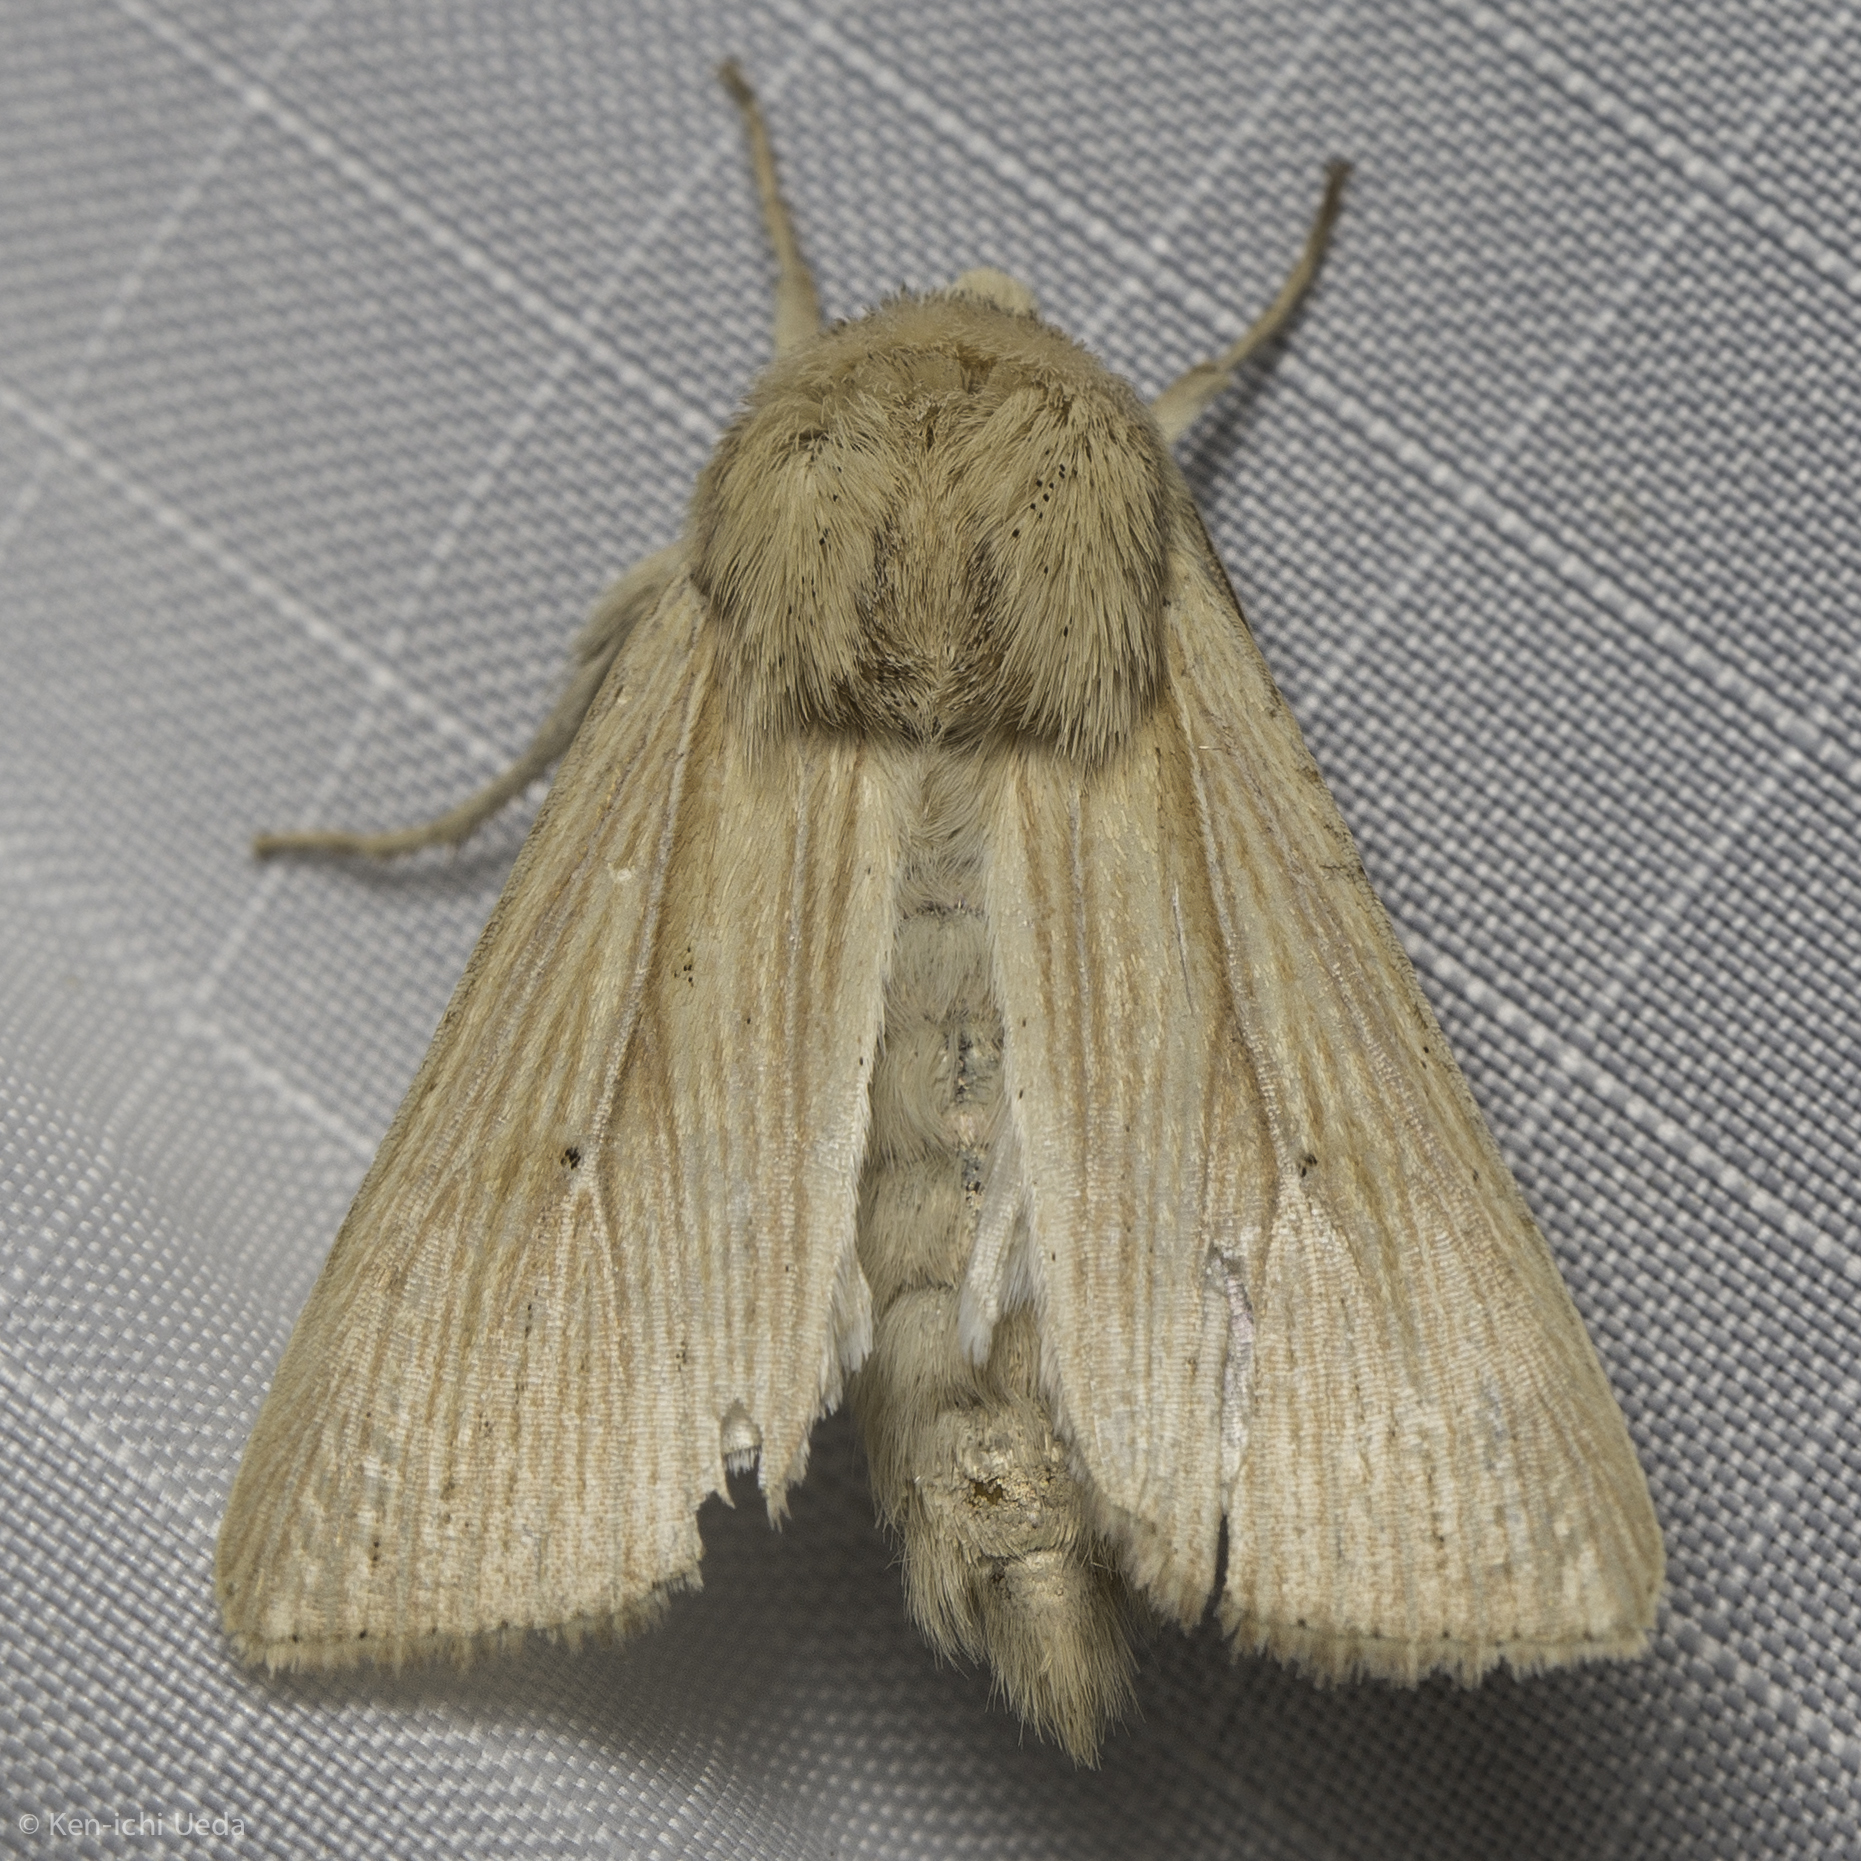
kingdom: Animalia
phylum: Arthropoda
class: Insecta
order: Lepidoptera
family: Noctuidae
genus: Leucania
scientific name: Leucania farcta
